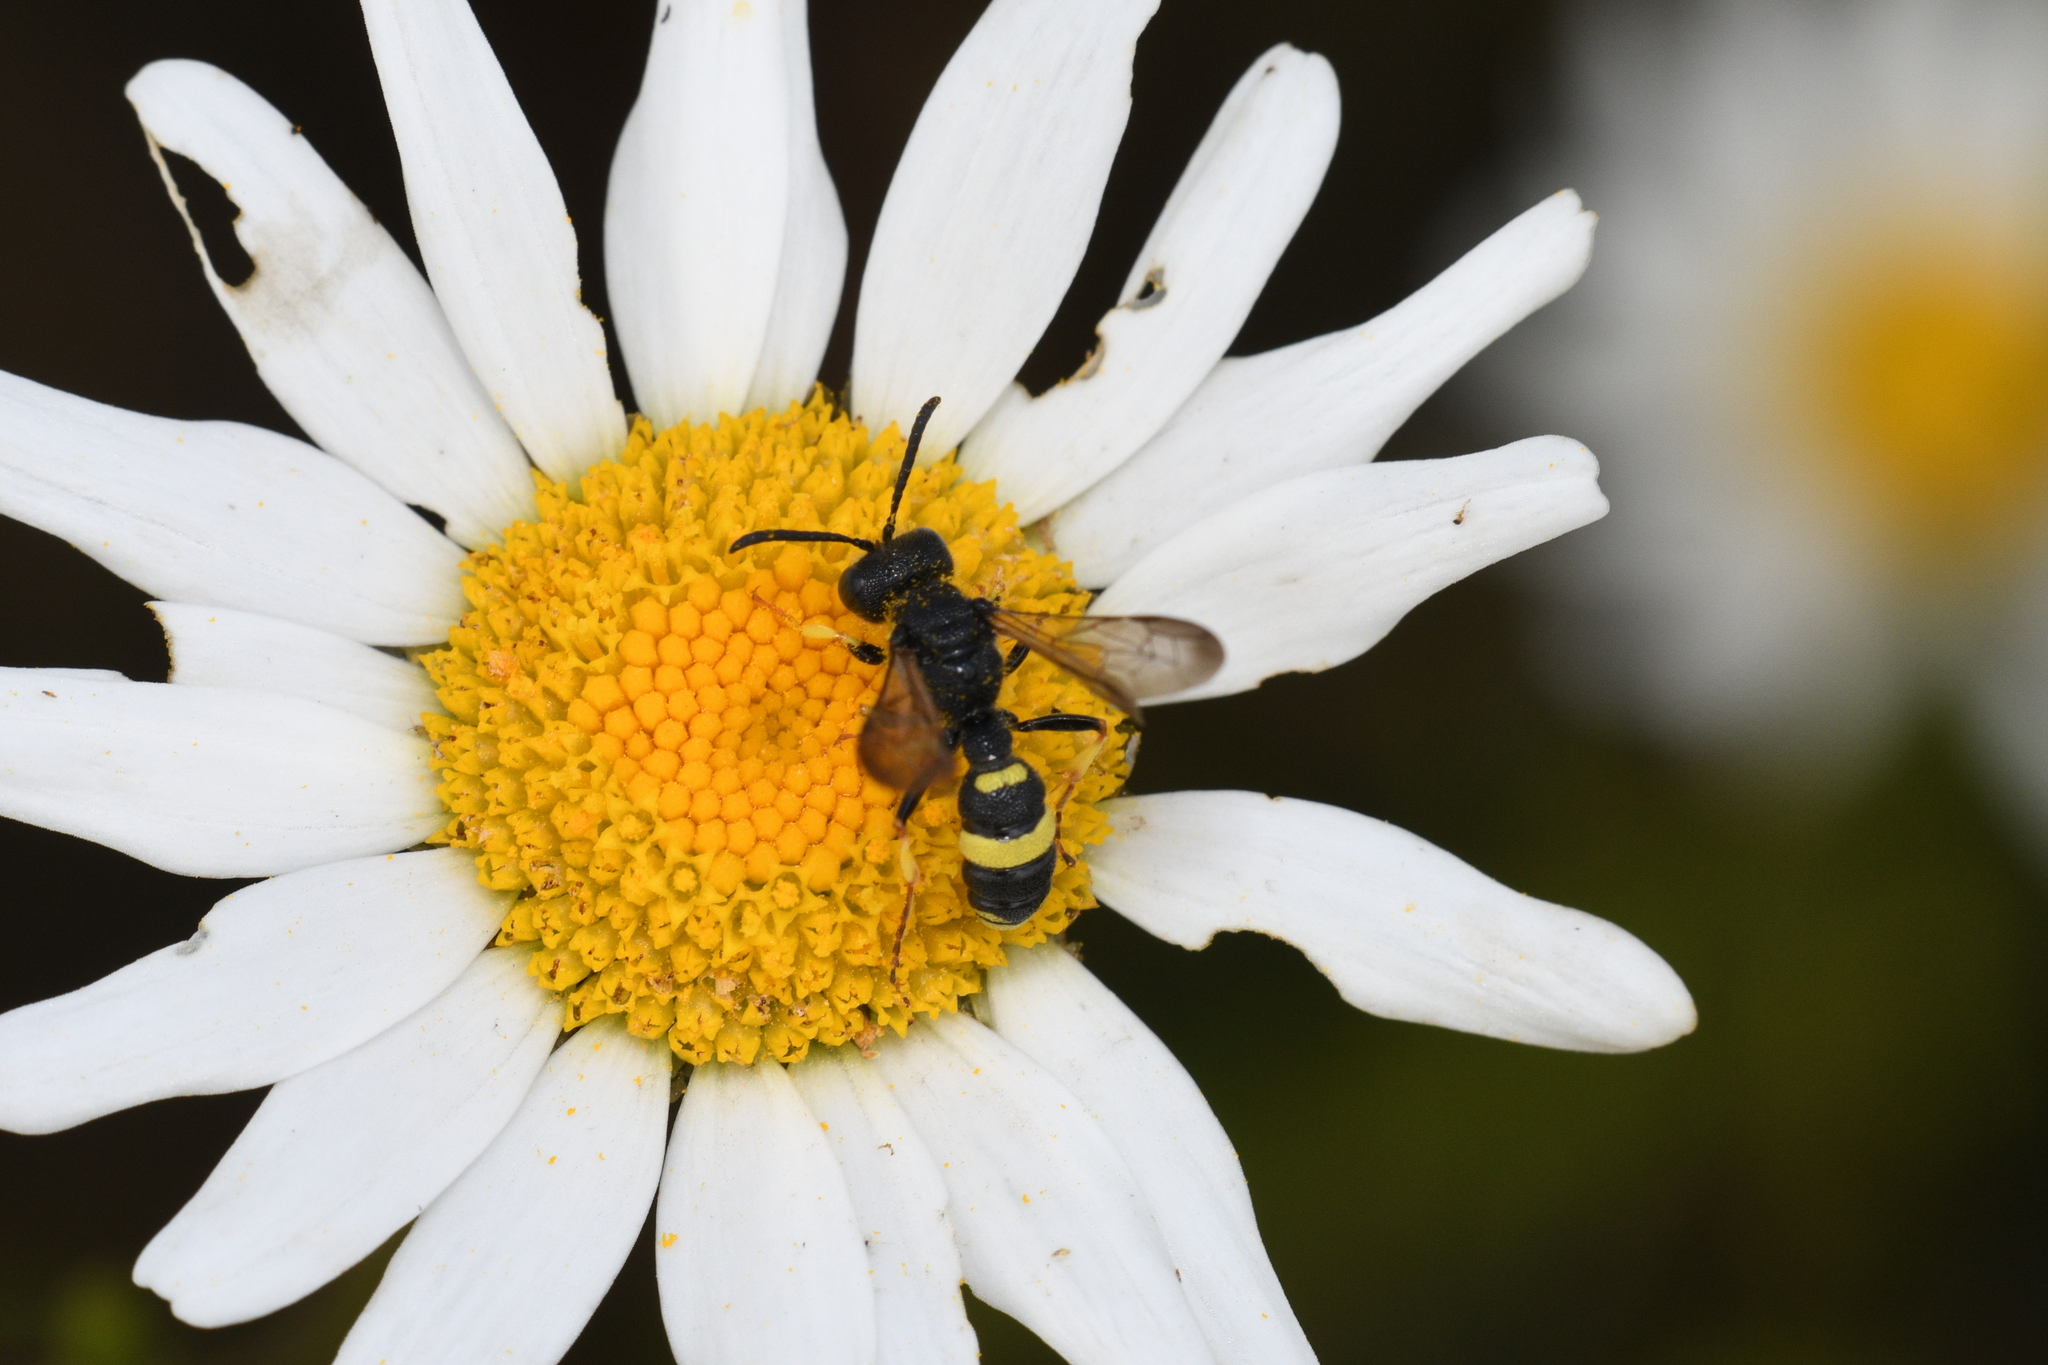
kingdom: Animalia
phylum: Arthropoda
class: Insecta
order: Hymenoptera
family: Crabronidae
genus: Cerceris
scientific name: Cerceris rybyensis
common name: Ornate tailed digger wasp
